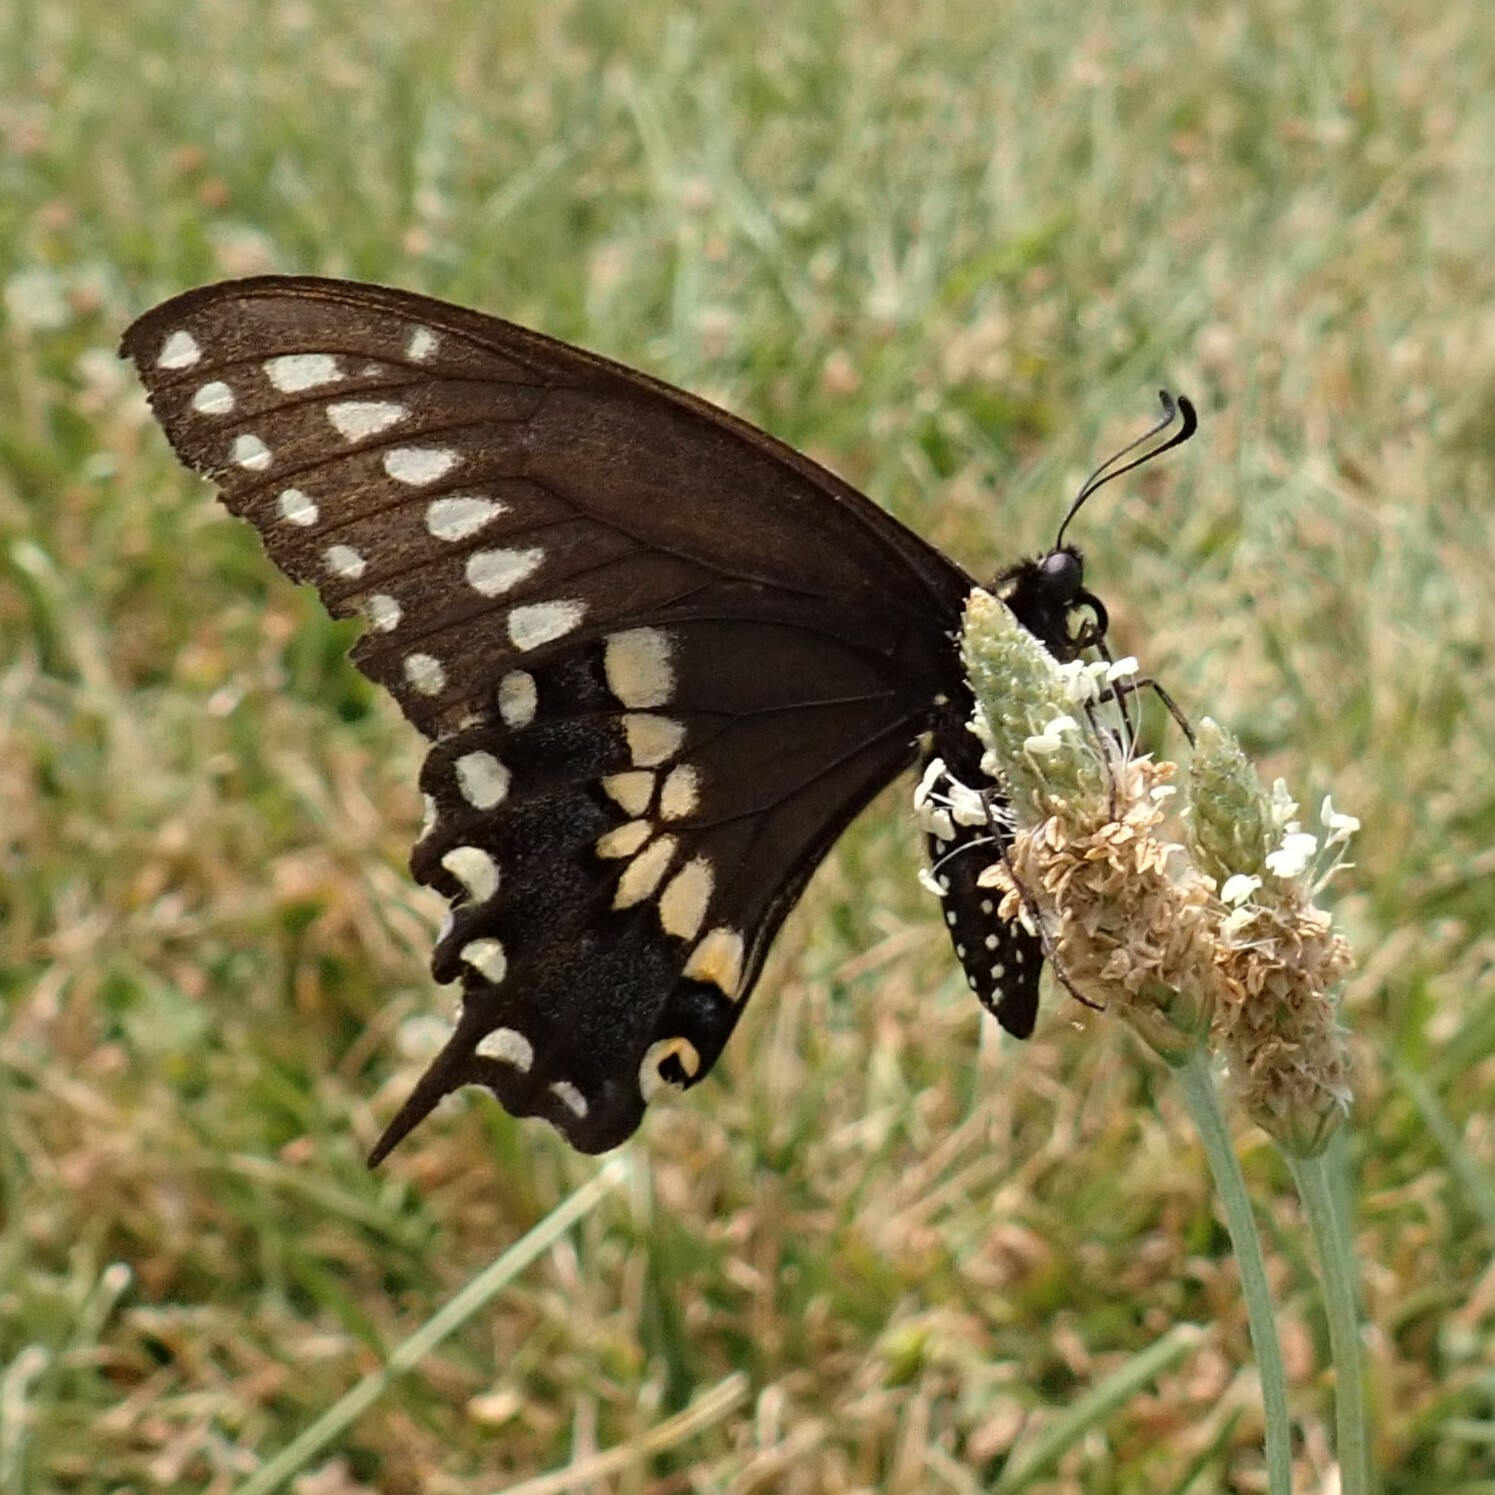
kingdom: Animalia
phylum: Arthropoda
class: Insecta
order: Lepidoptera
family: Papilionidae
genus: Papilio
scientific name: Papilio polyxenes
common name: Black swallowtail
